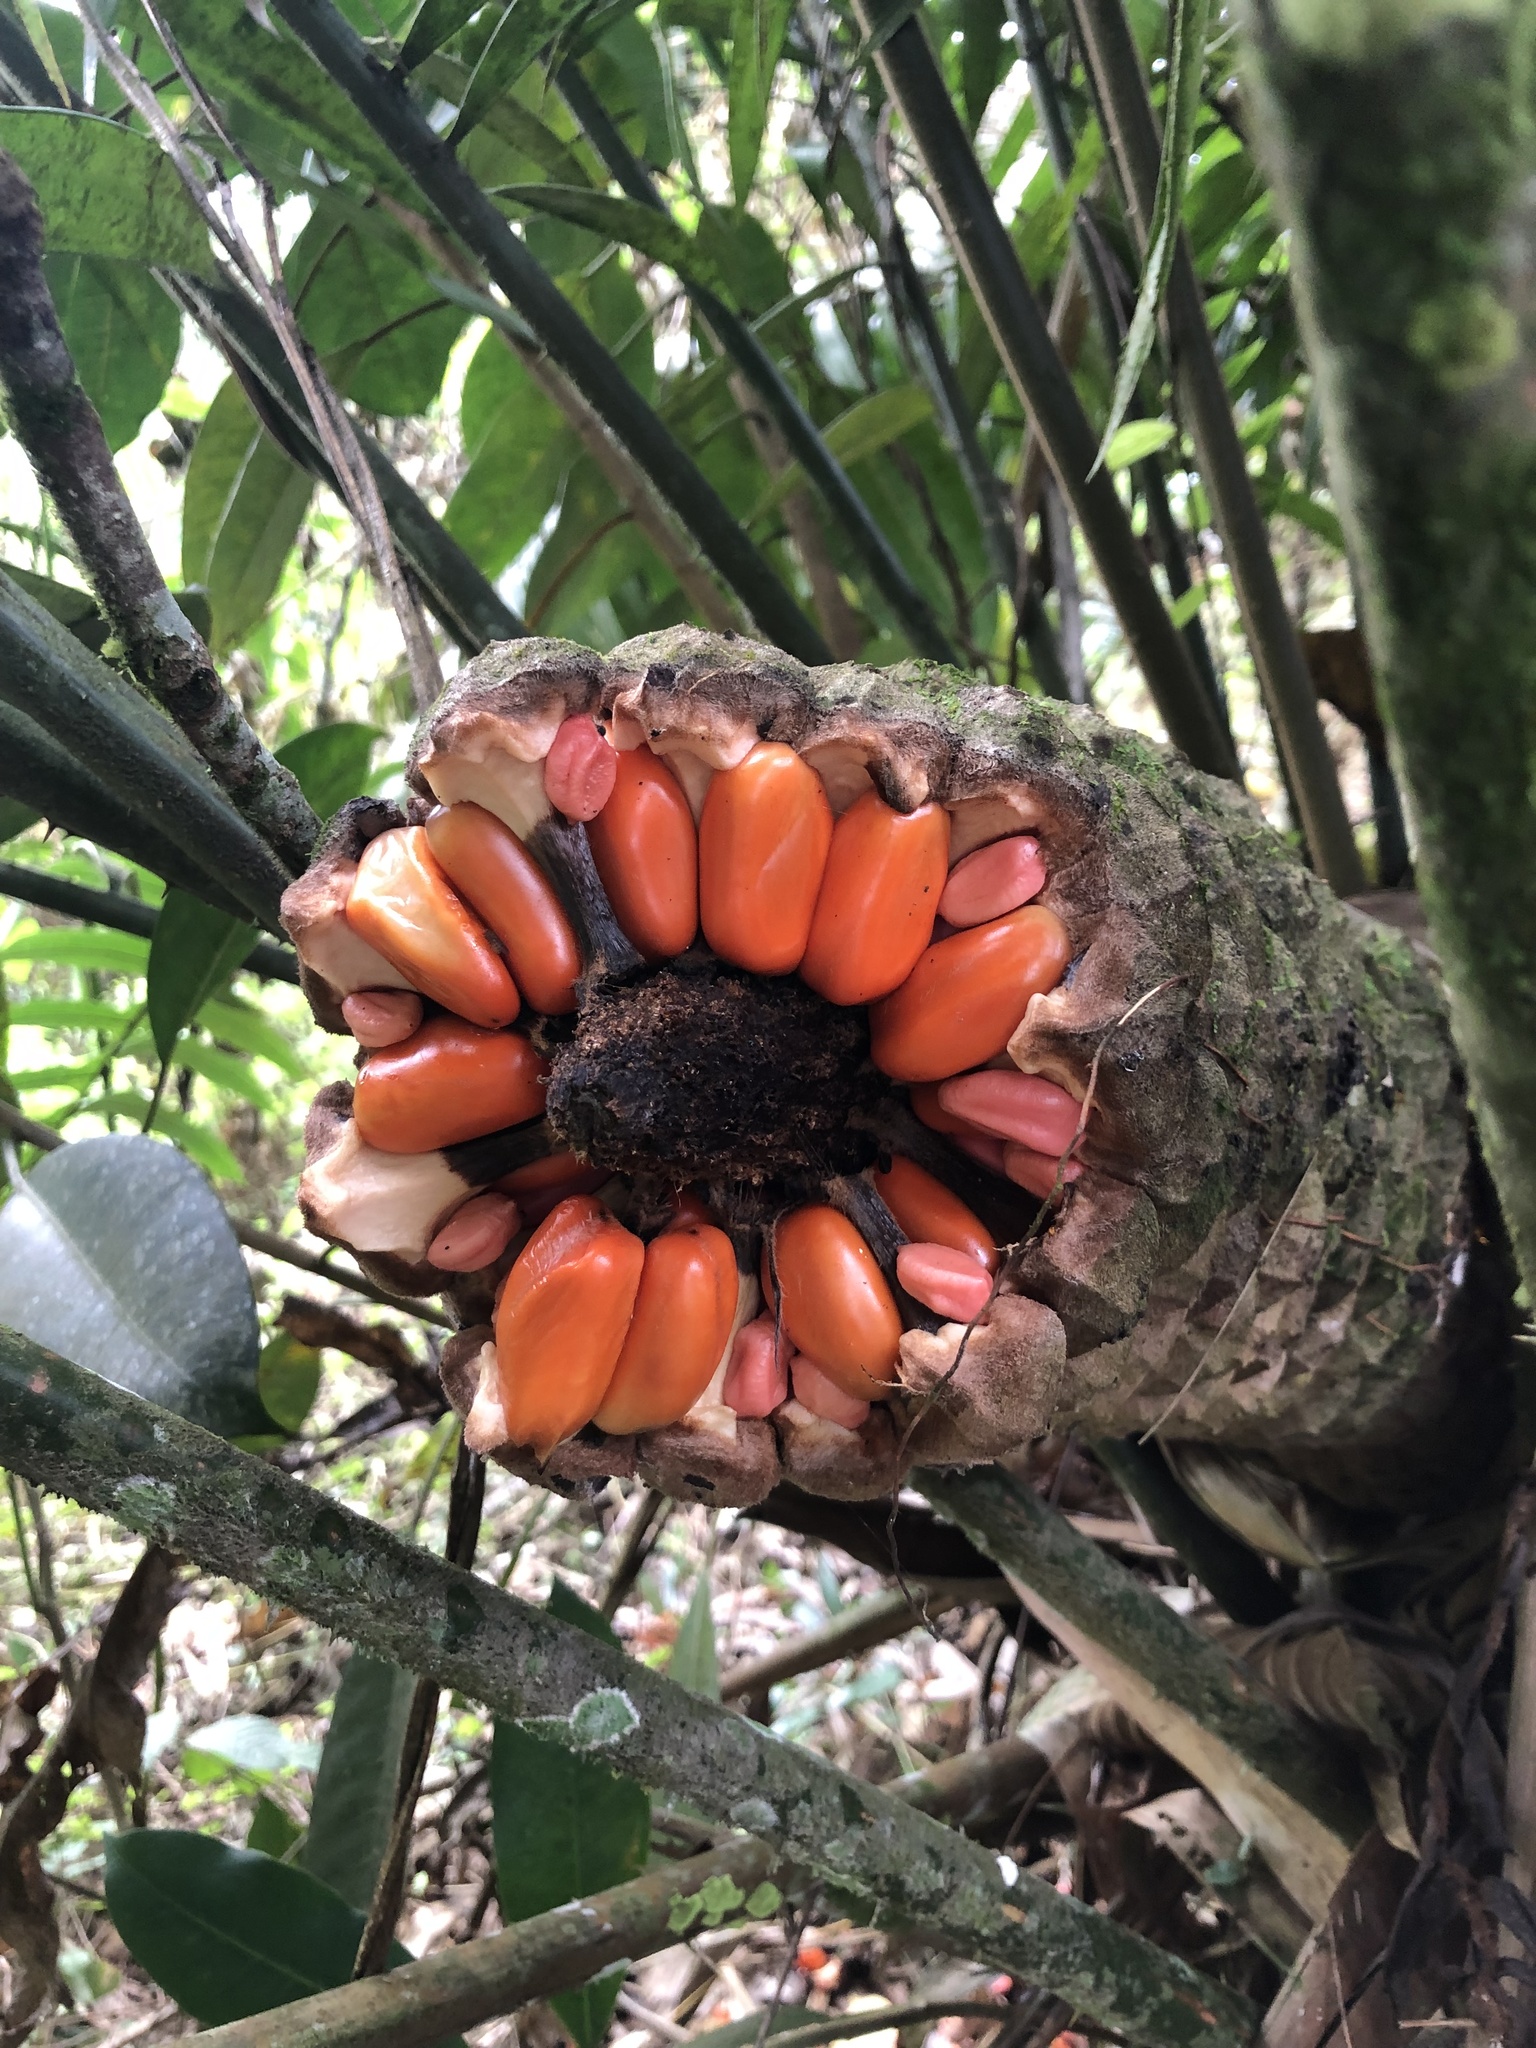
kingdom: Plantae
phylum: Tracheophyta
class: Cycadopsida
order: Cycadales
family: Zamiaceae
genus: Zamia
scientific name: Zamia lindenii
